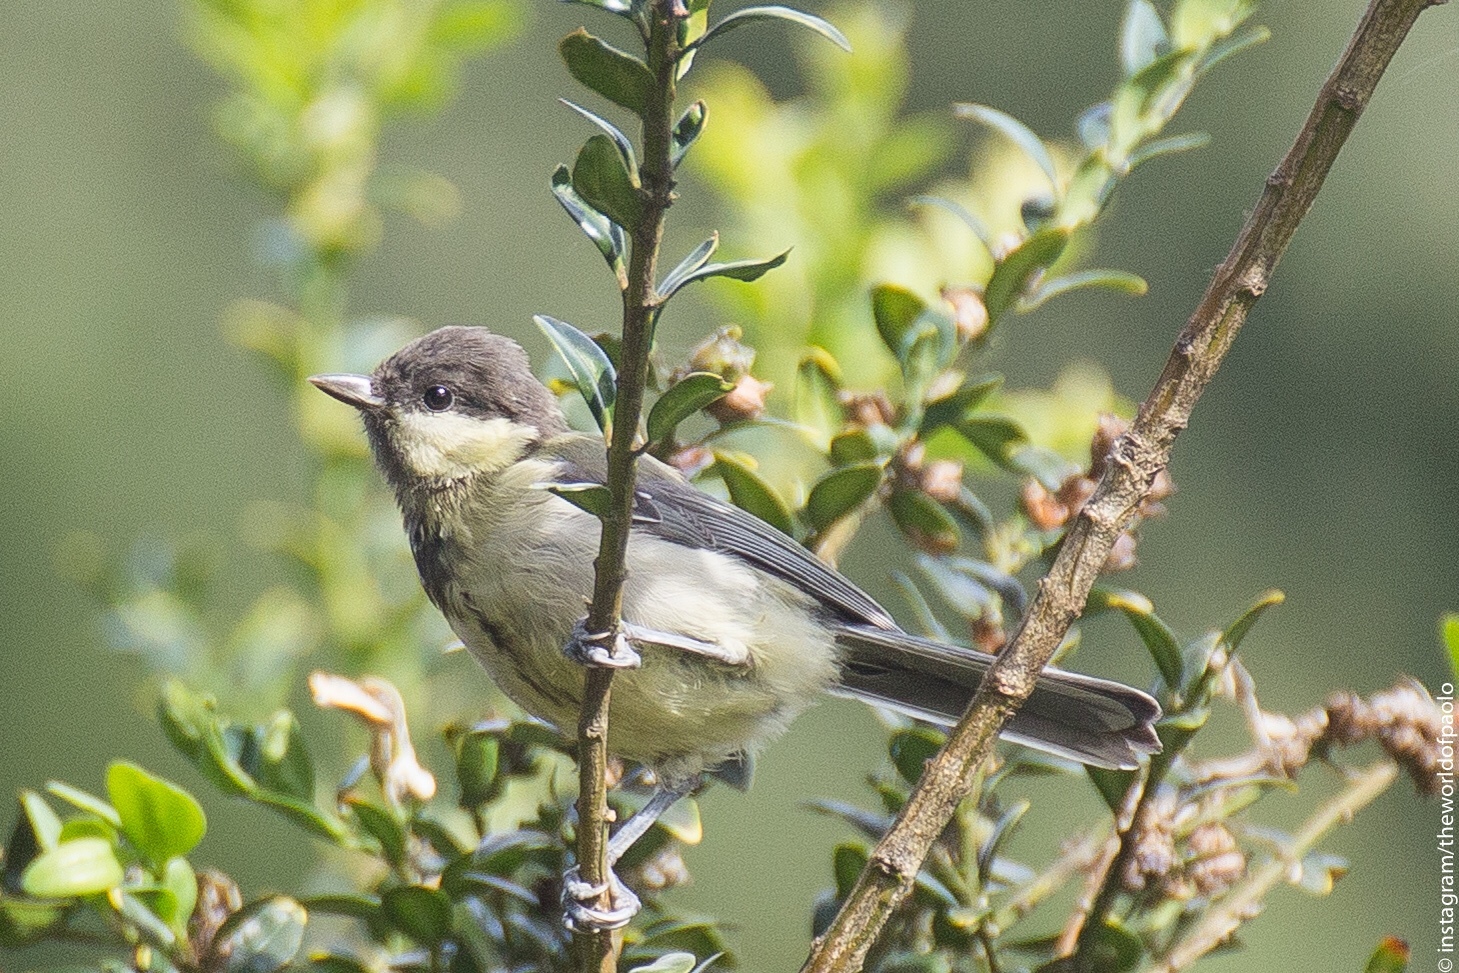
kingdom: Animalia
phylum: Chordata
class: Aves
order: Passeriformes
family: Paridae
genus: Parus
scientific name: Parus major
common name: Great tit
